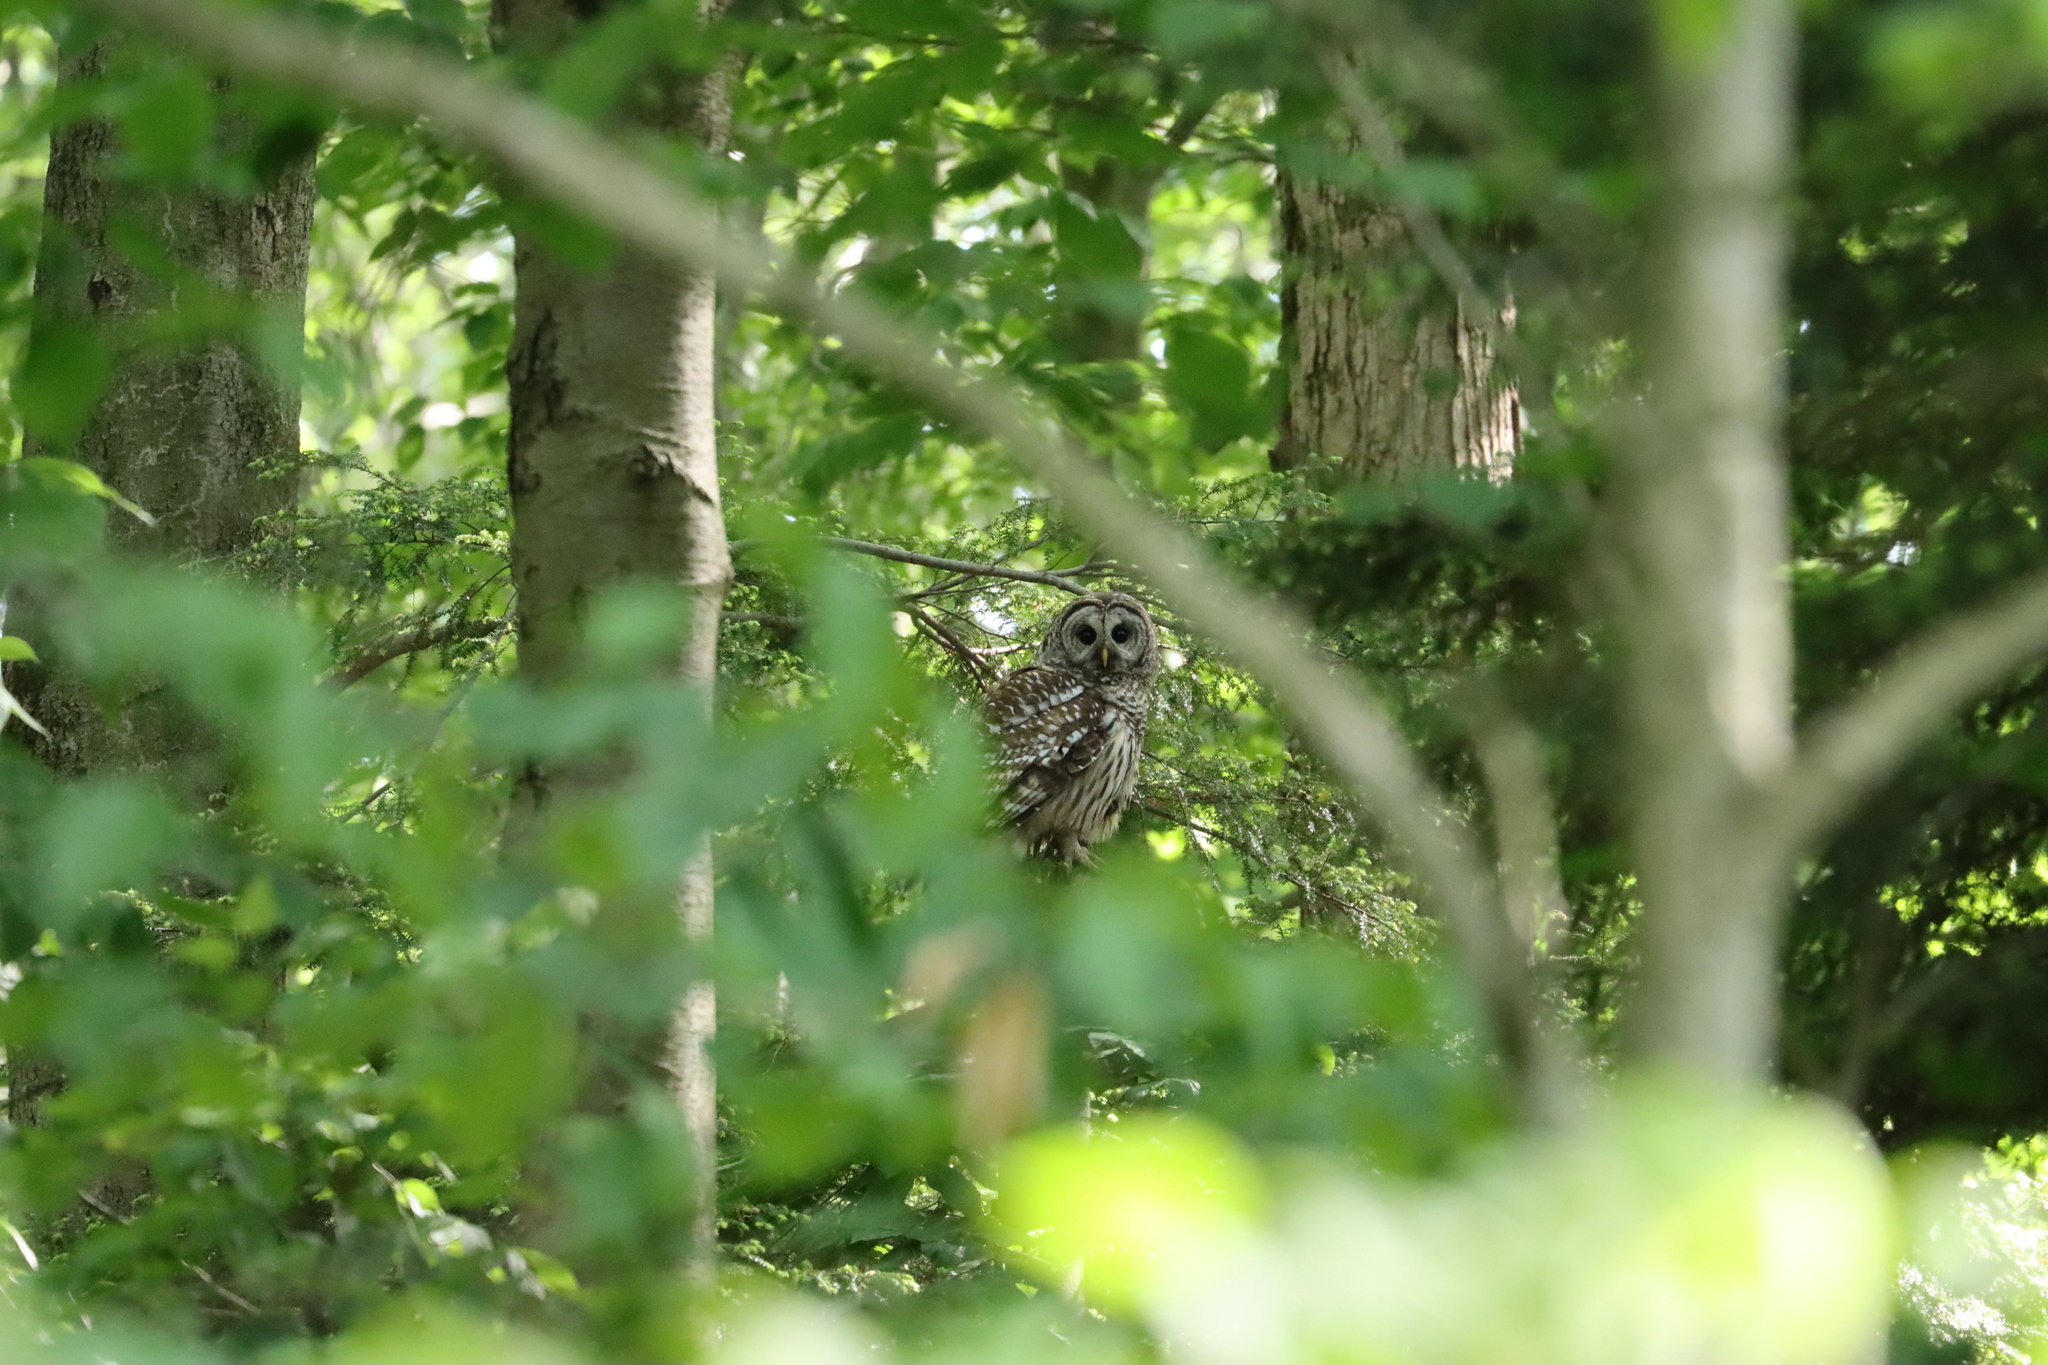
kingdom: Animalia
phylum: Chordata
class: Aves
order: Strigiformes
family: Strigidae
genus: Strix
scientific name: Strix varia
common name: Barred owl
